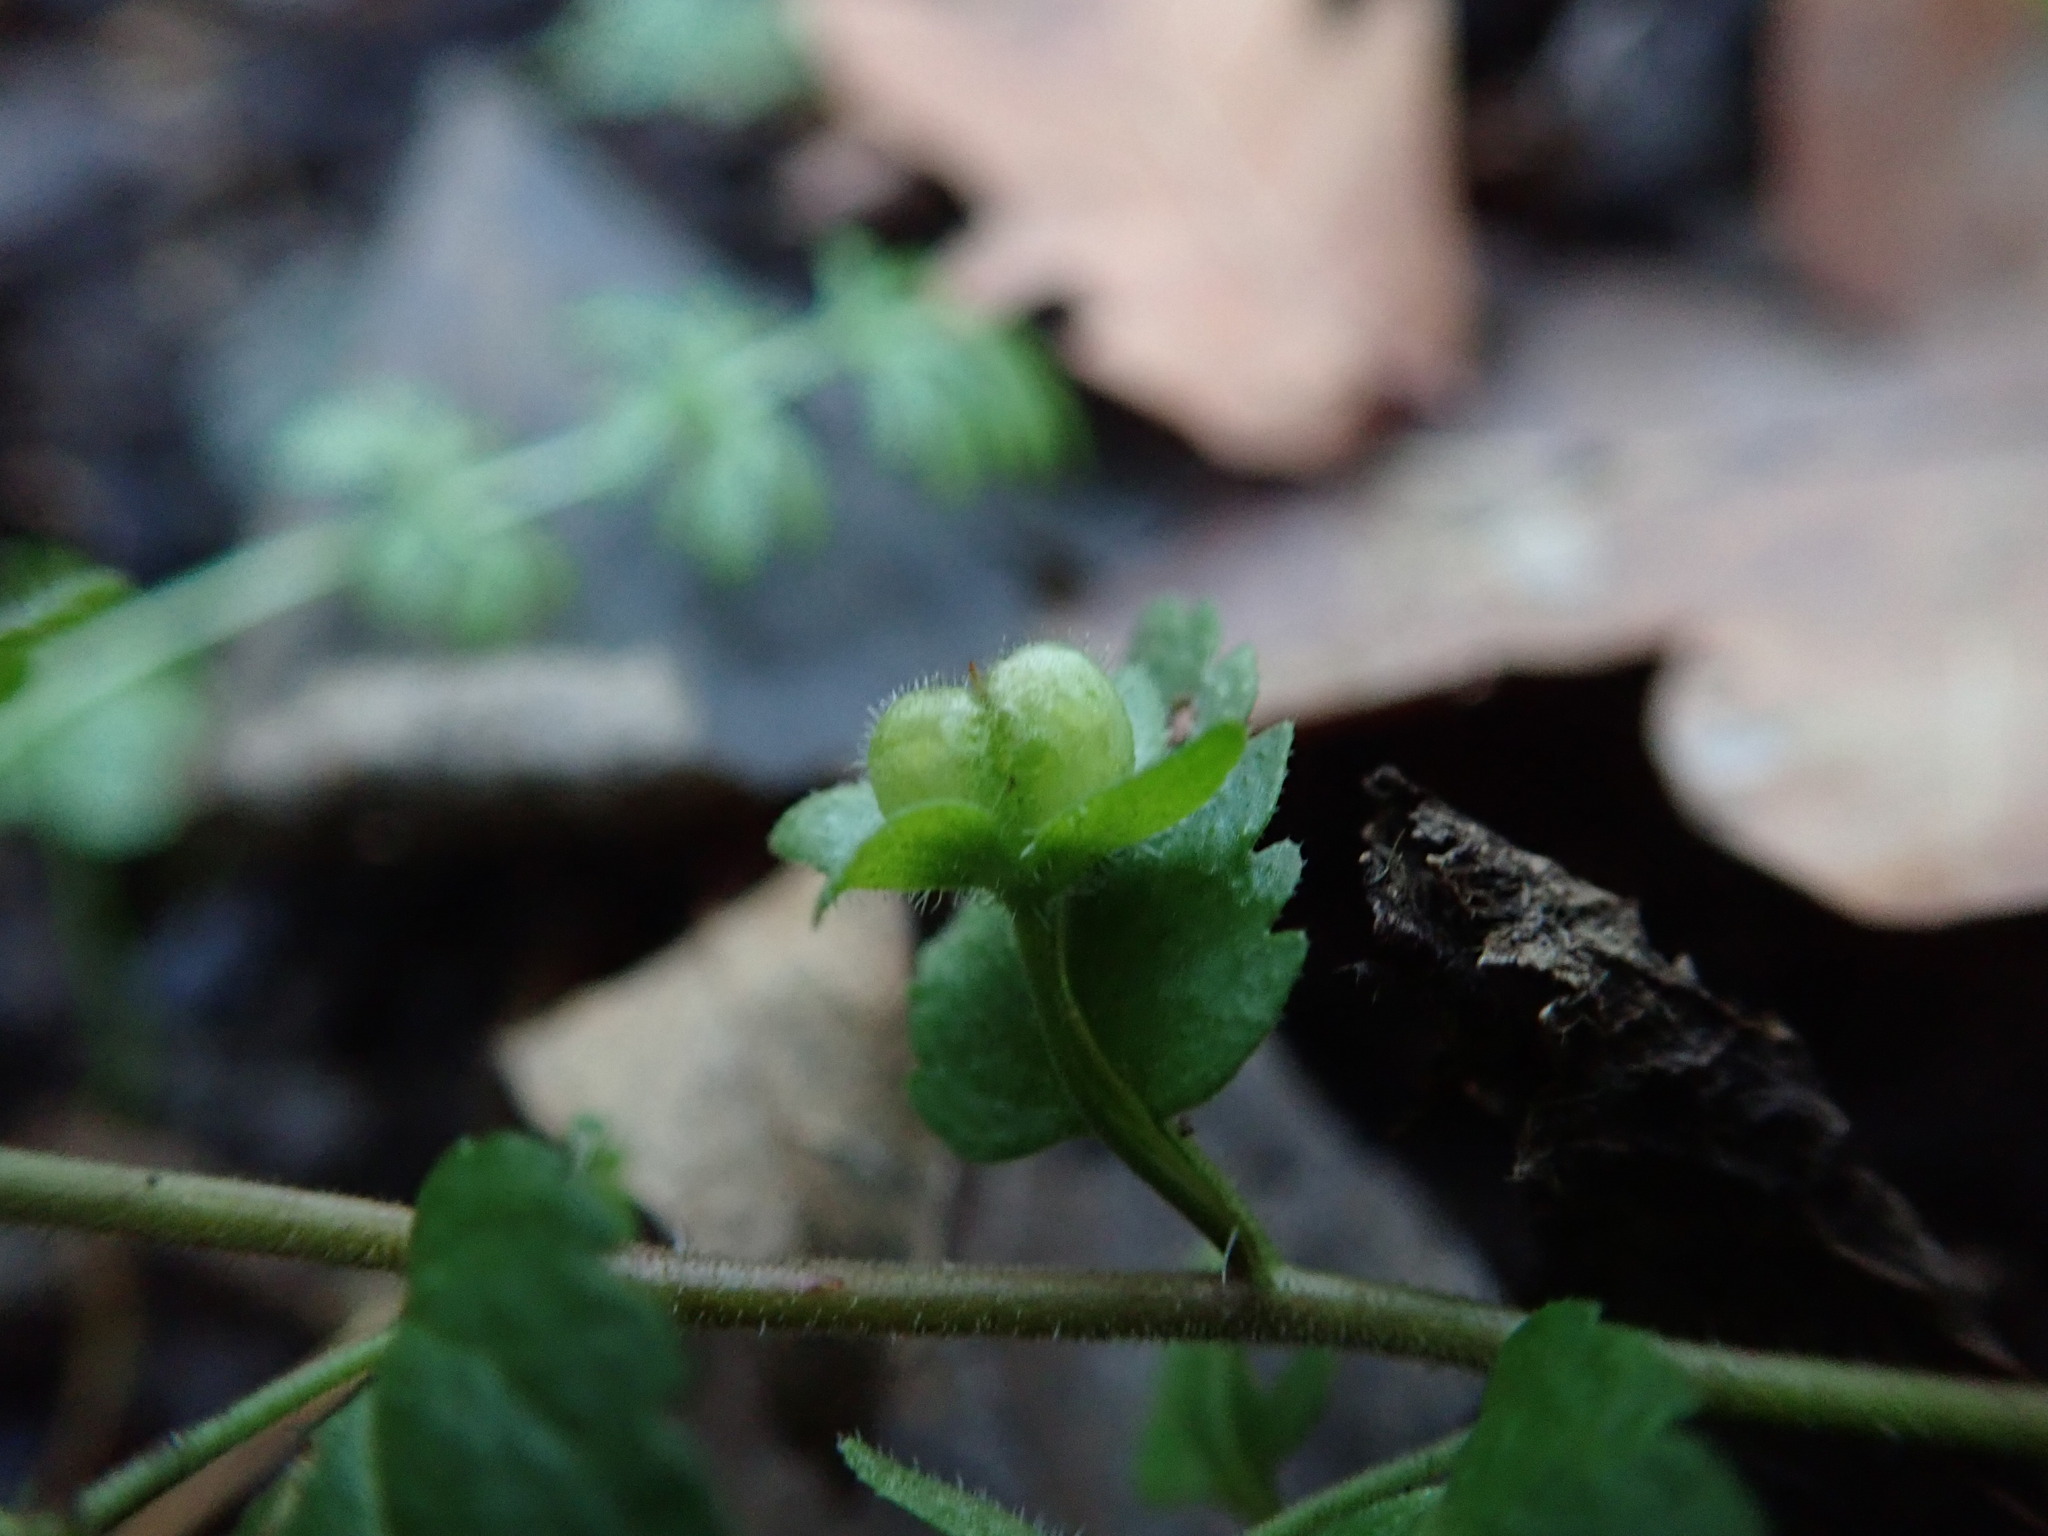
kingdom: Plantae
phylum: Tracheophyta
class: Magnoliopsida
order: Lamiales
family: Plantaginaceae
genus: Veronica
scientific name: Veronica agrestis
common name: Green field-speedwell
